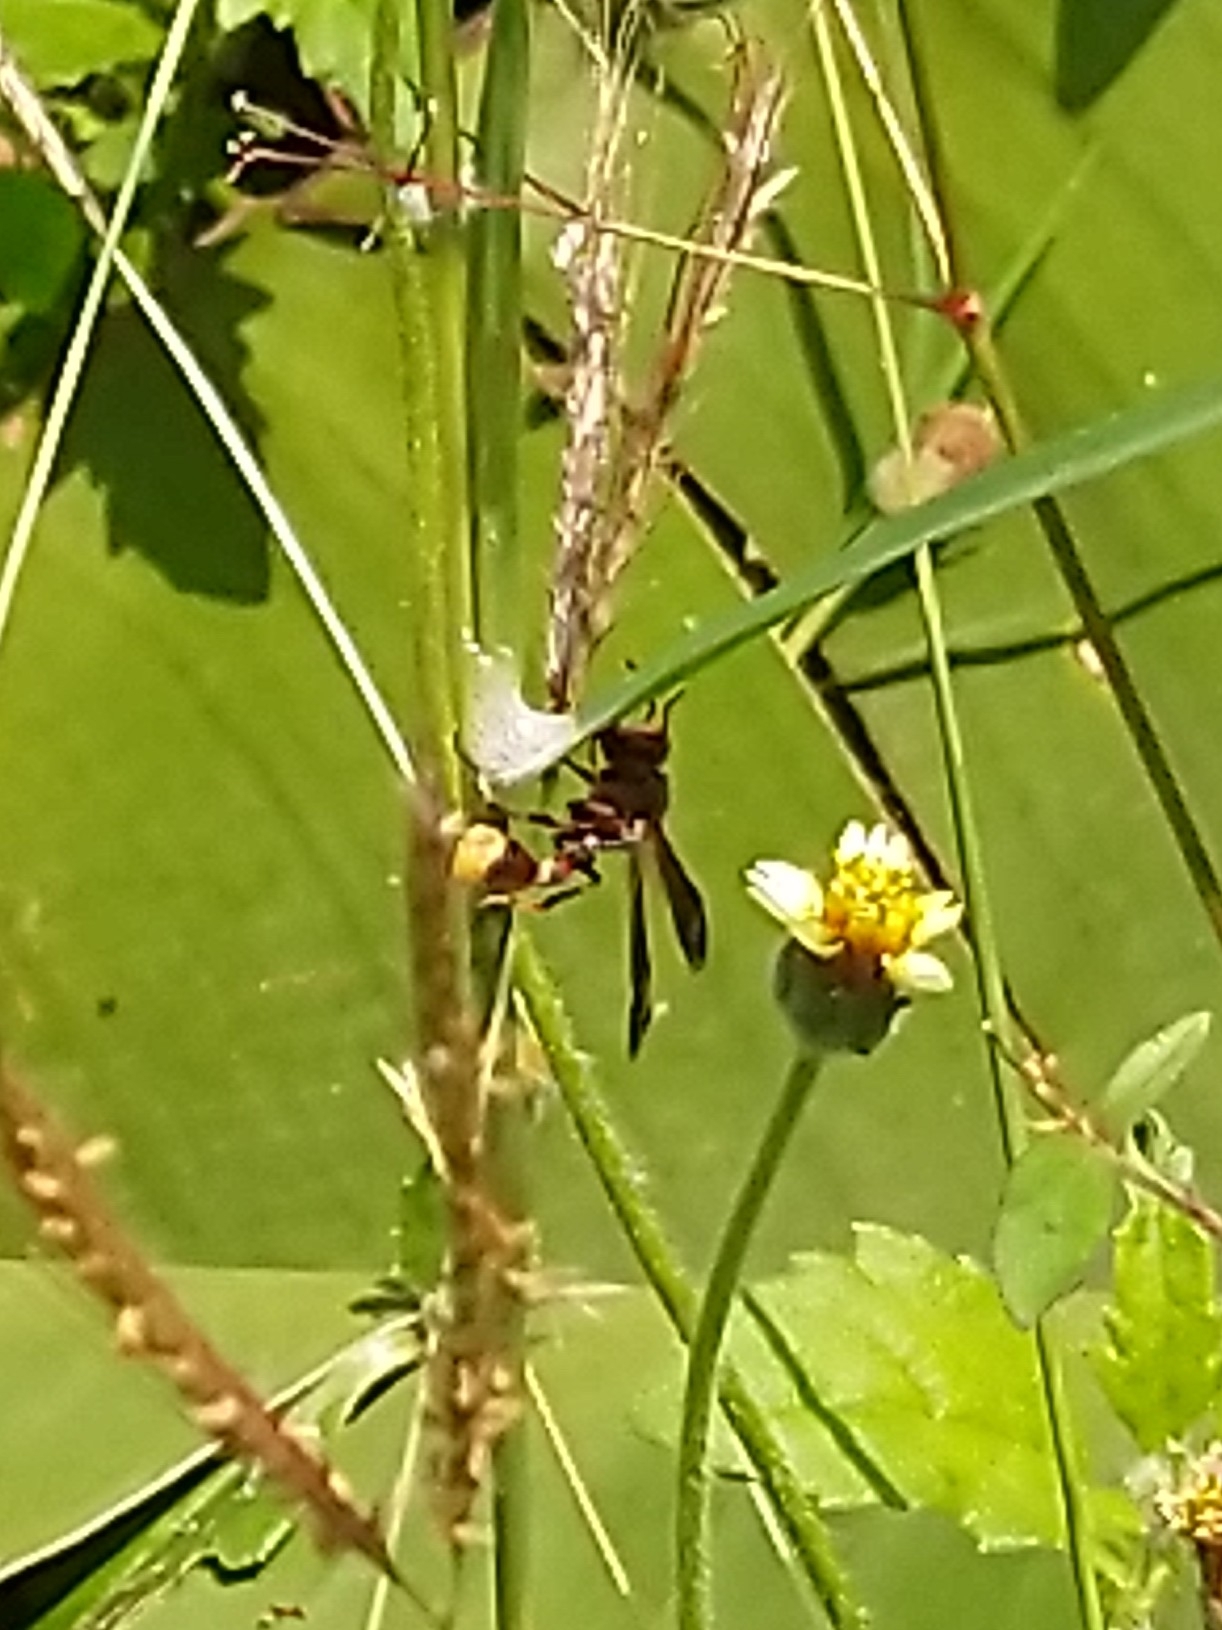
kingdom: Animalia
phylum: Arthropoda
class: Insecta
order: Hymenoptera
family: Vespidae
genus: Ropalidia
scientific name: Ropalidia
